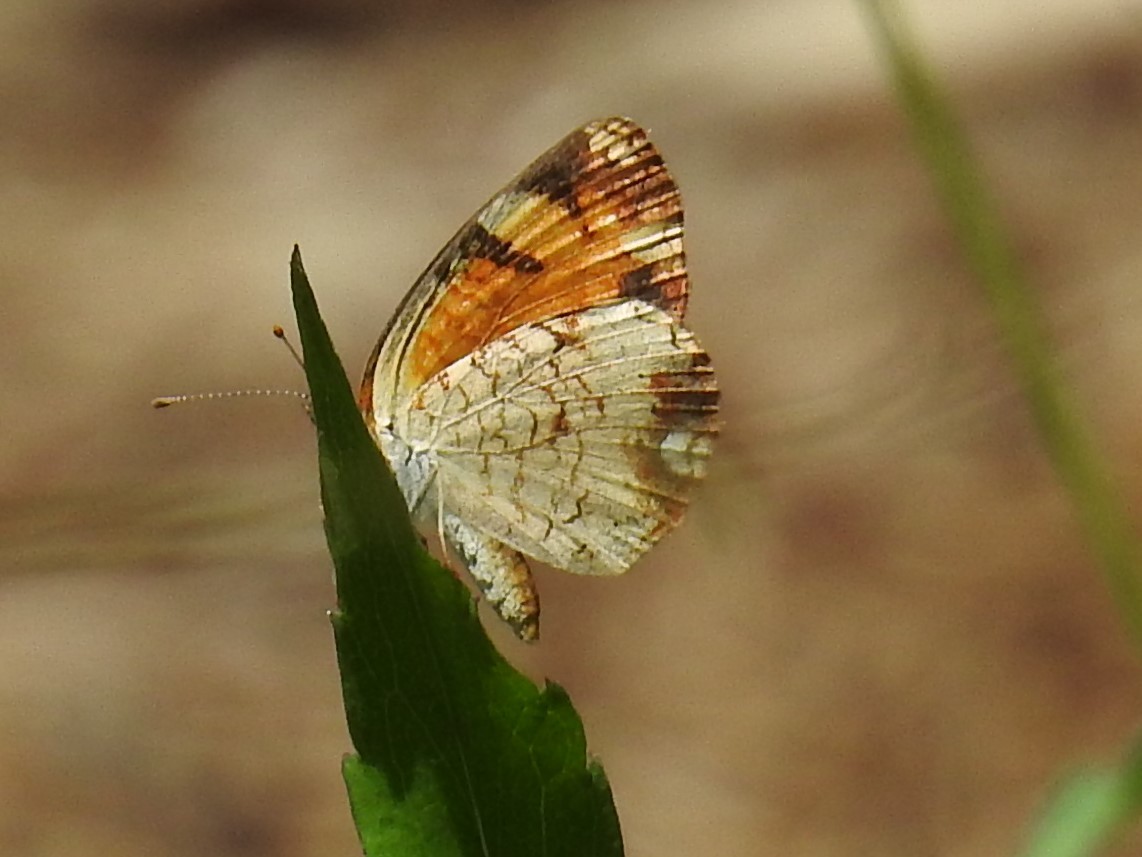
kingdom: Animalia
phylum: Arthropoda
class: Insecta
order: Lepidoptera
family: Nymphalidae
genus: Phyciodes
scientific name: Phyciodes tharos
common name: Pearl crescent
